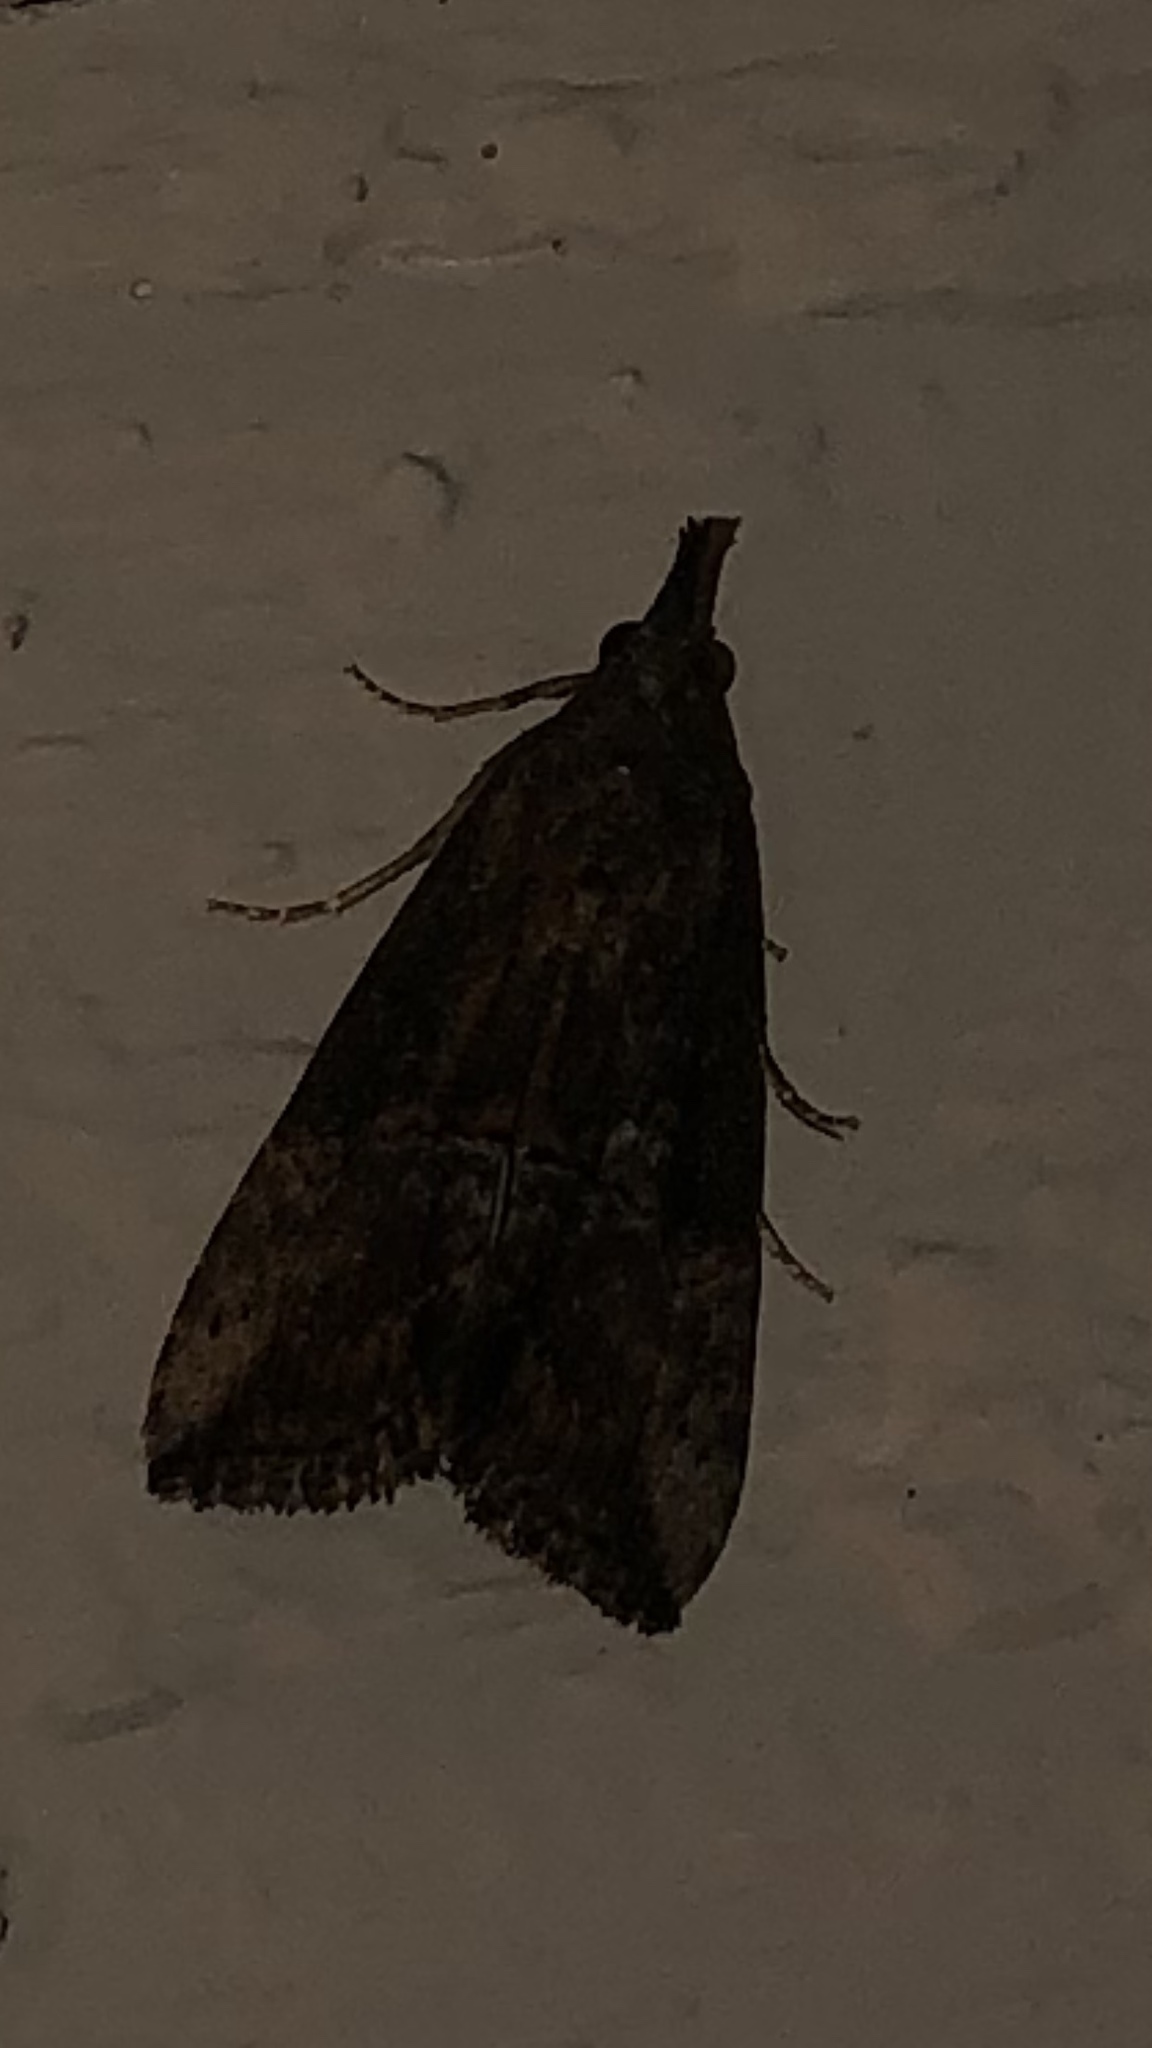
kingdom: Animalia
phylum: Arthropoda
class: Insecta
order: Lepidoptera
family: Erebidae
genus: Hypena
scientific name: Hypena scabra
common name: Green cloverworm
